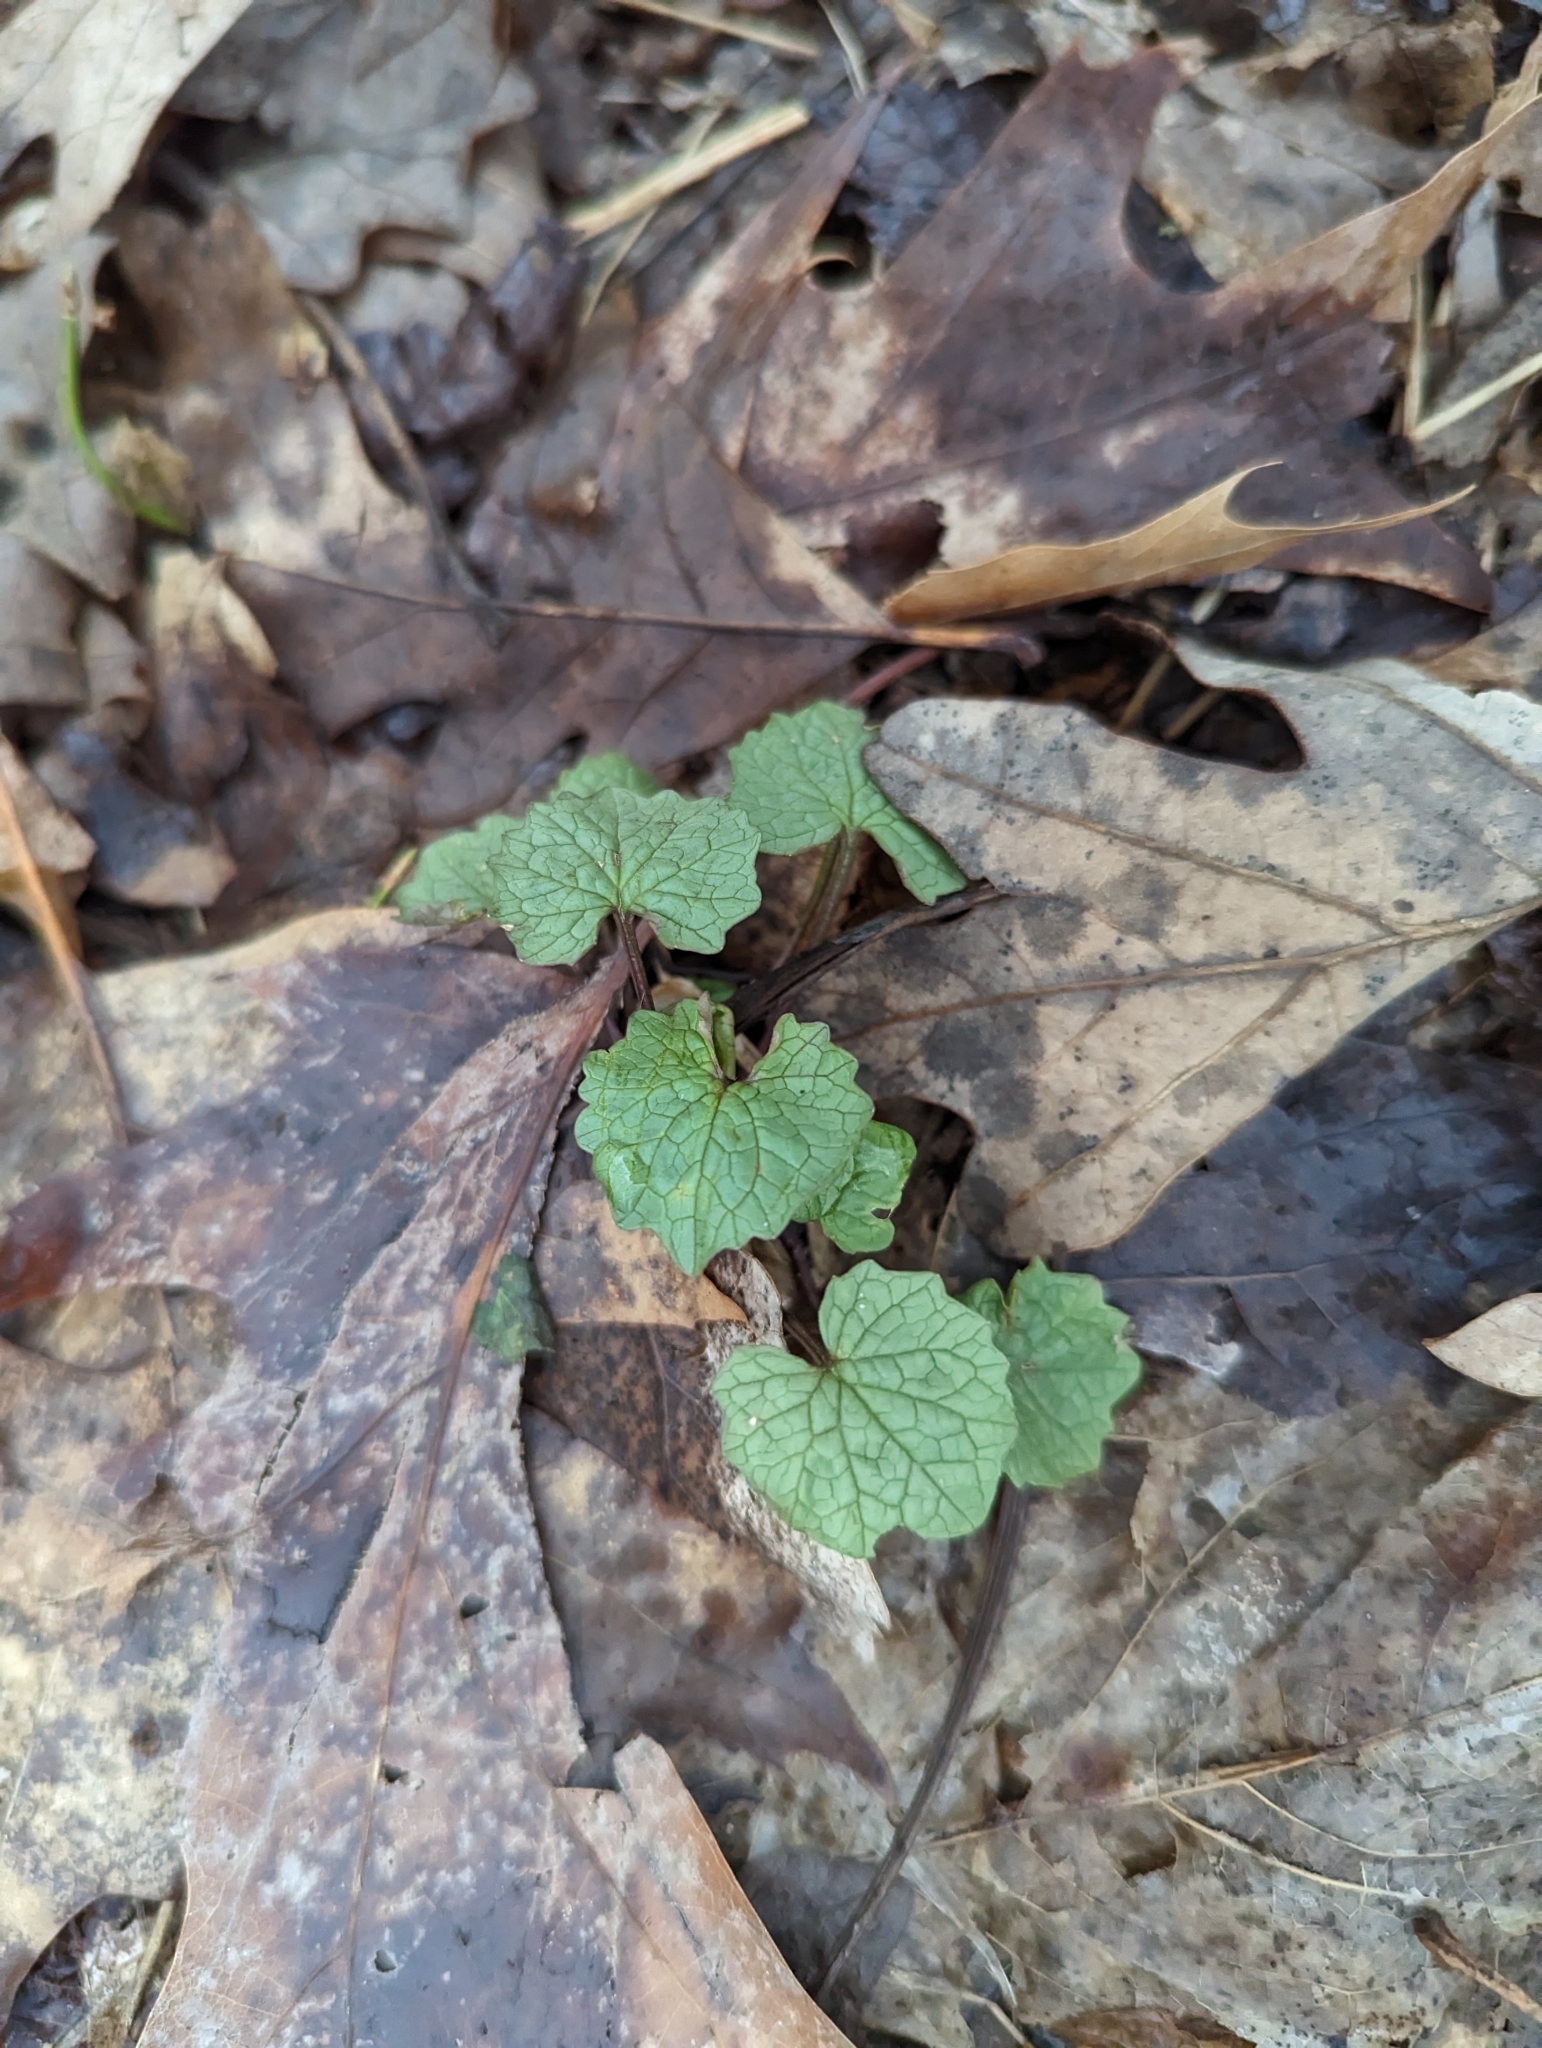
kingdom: Plantae
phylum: Tracheophyta
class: Magnoliopsida
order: Brassicales
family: Brassicaceae
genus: Alliaria
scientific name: Alliaria petiolata
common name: Garlic mustard
